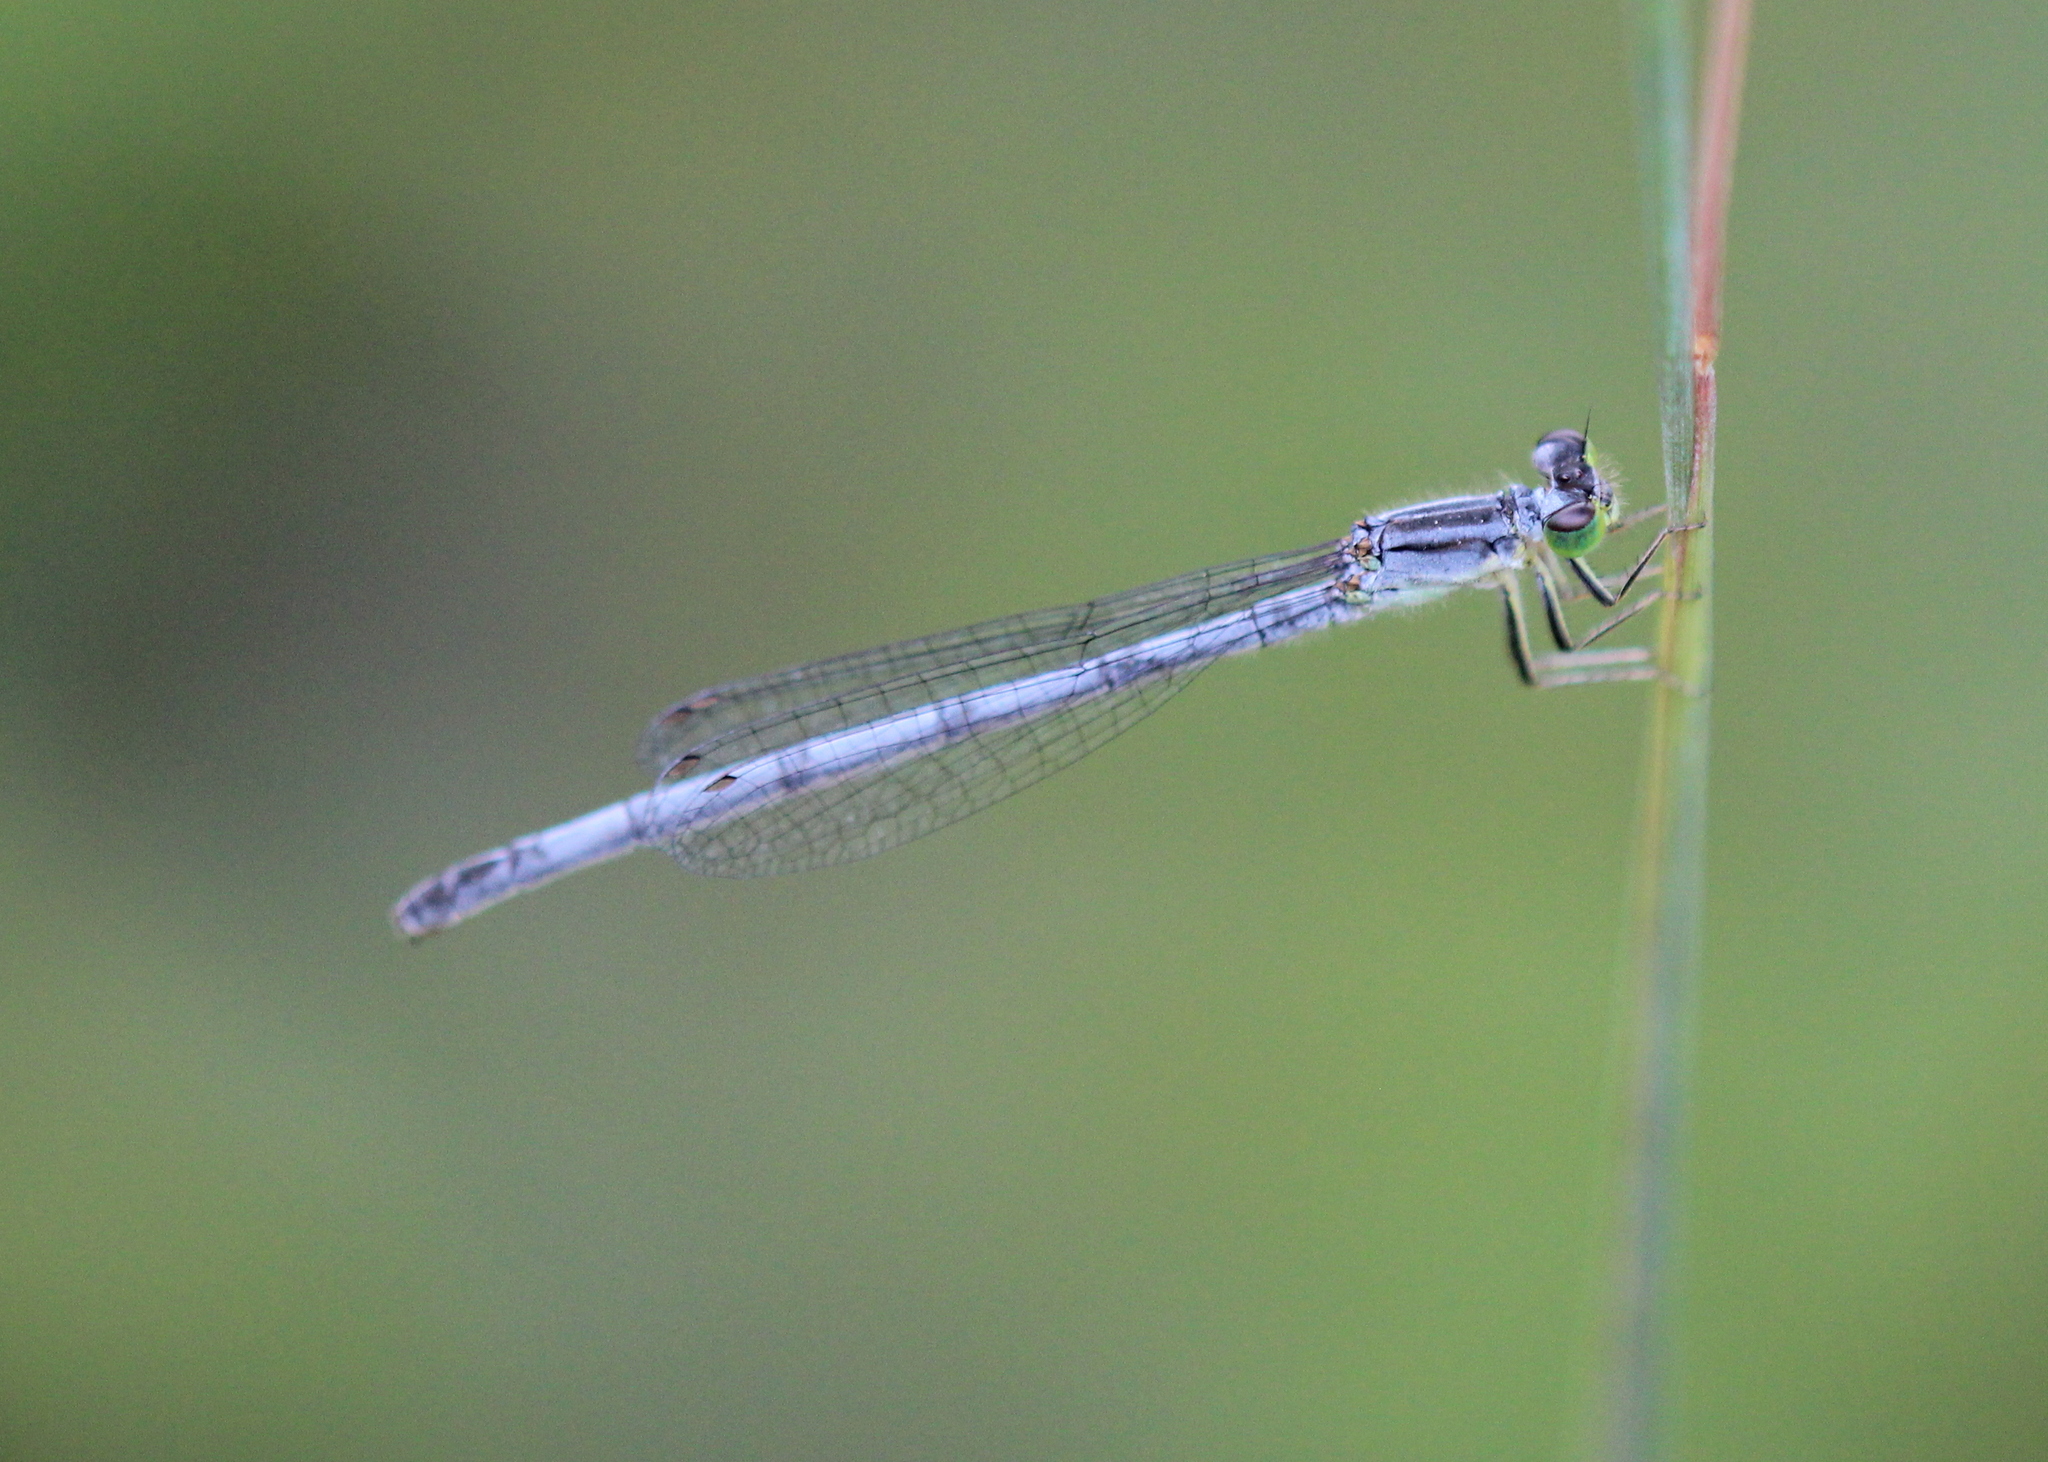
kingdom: Animalia
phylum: Arthropoda
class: Insecta
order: Odonata
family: Coenagrionidae
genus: Ischnura
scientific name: Ischnura verticalis
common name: Eastern forktail
